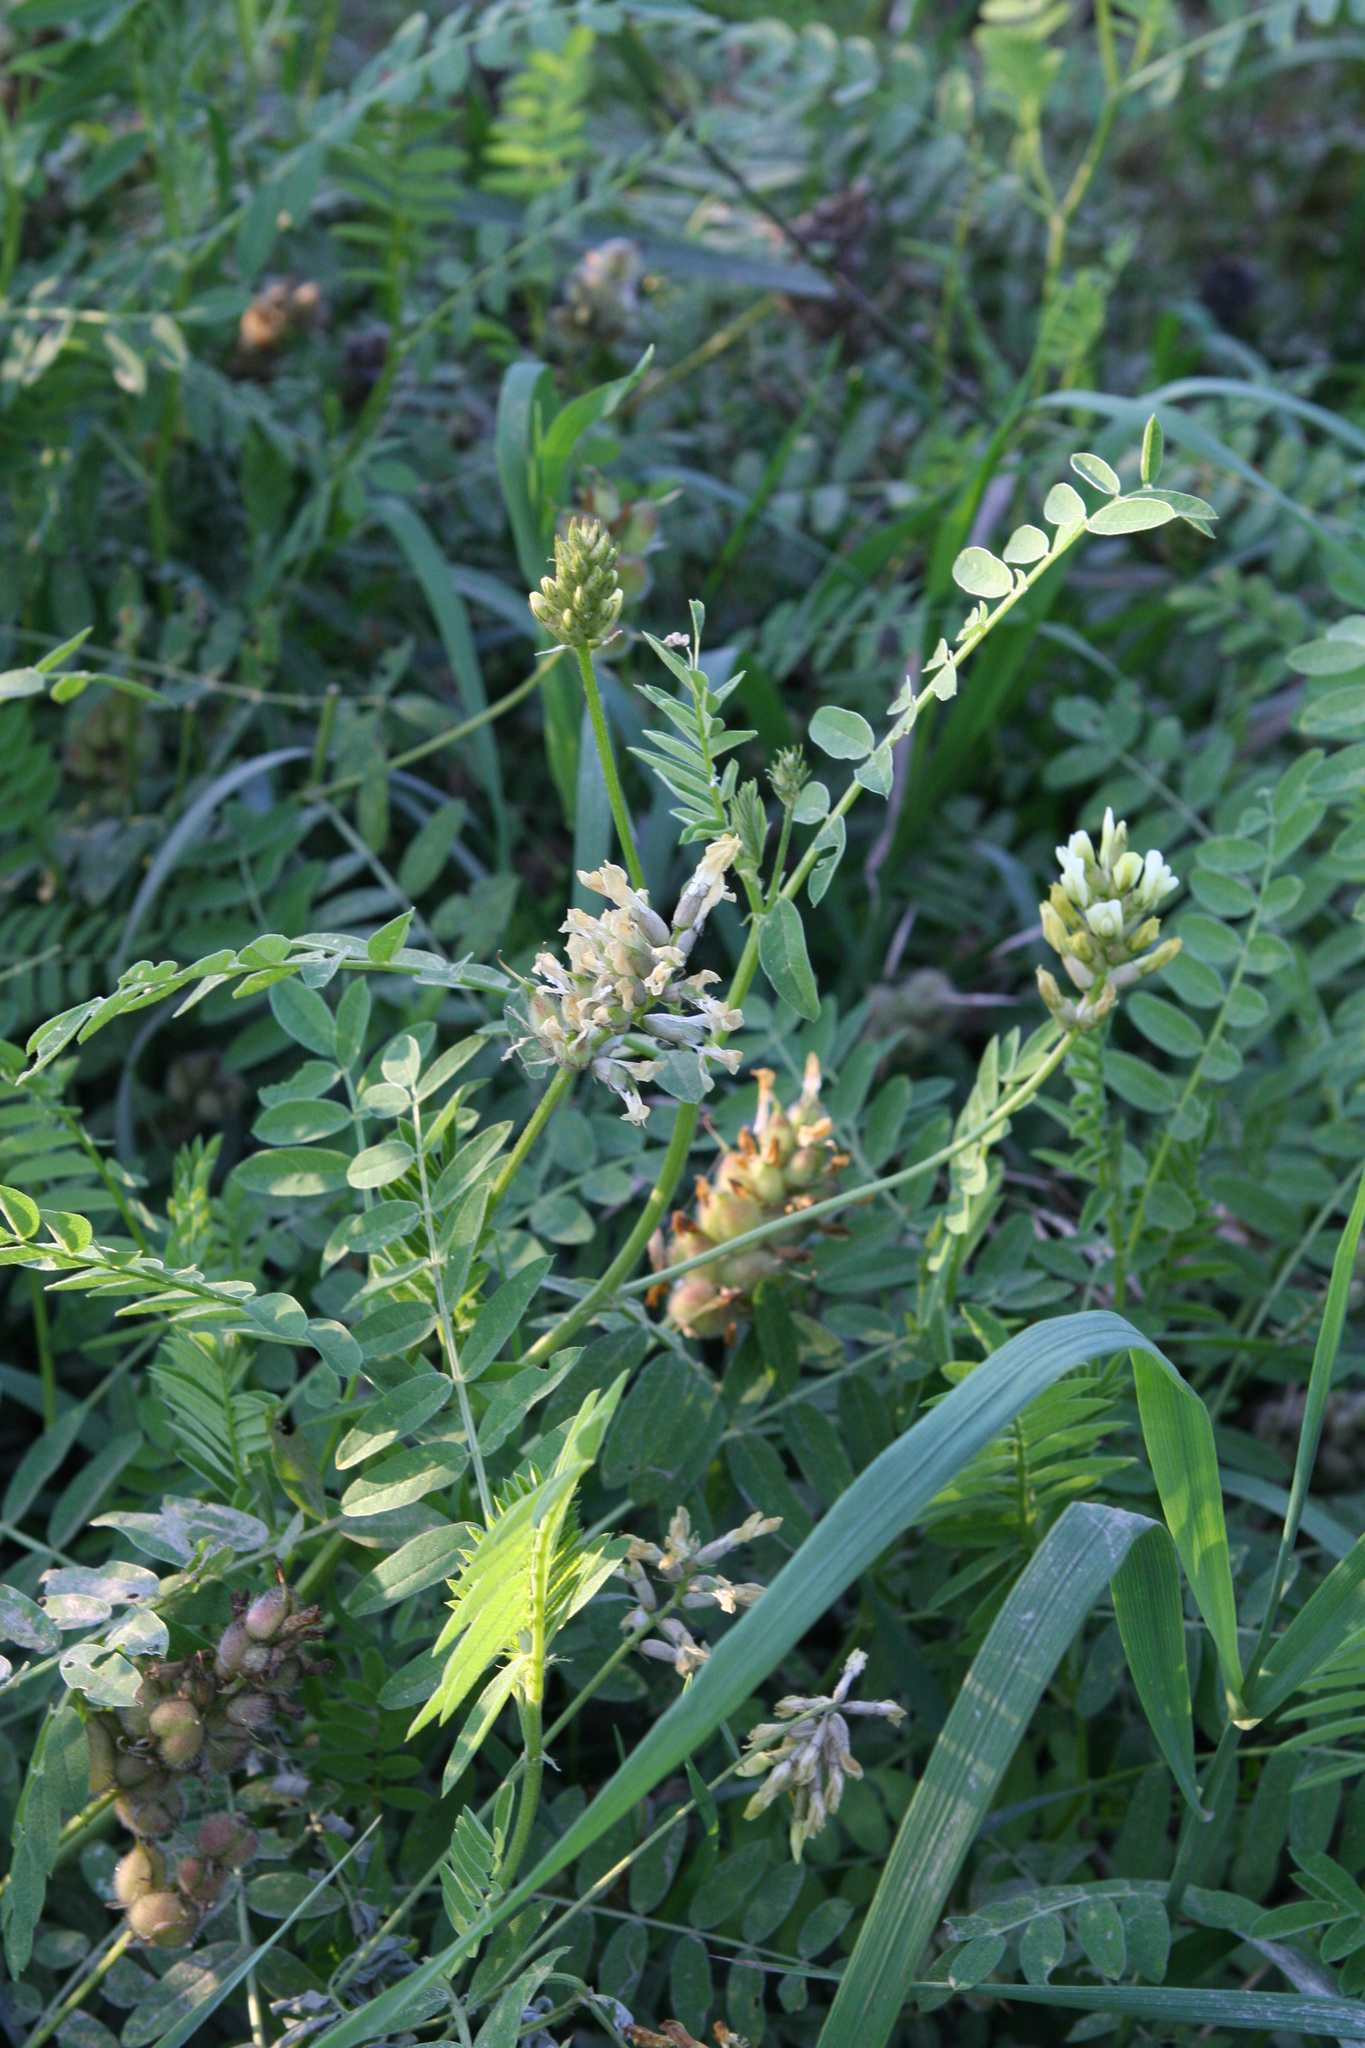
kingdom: Plantae
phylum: Tracheophyta
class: Magnoliopsida
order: Fabales
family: Fabaceae
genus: Astragalus
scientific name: Astragalus cicer
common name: Chick-pea milk-vetch
